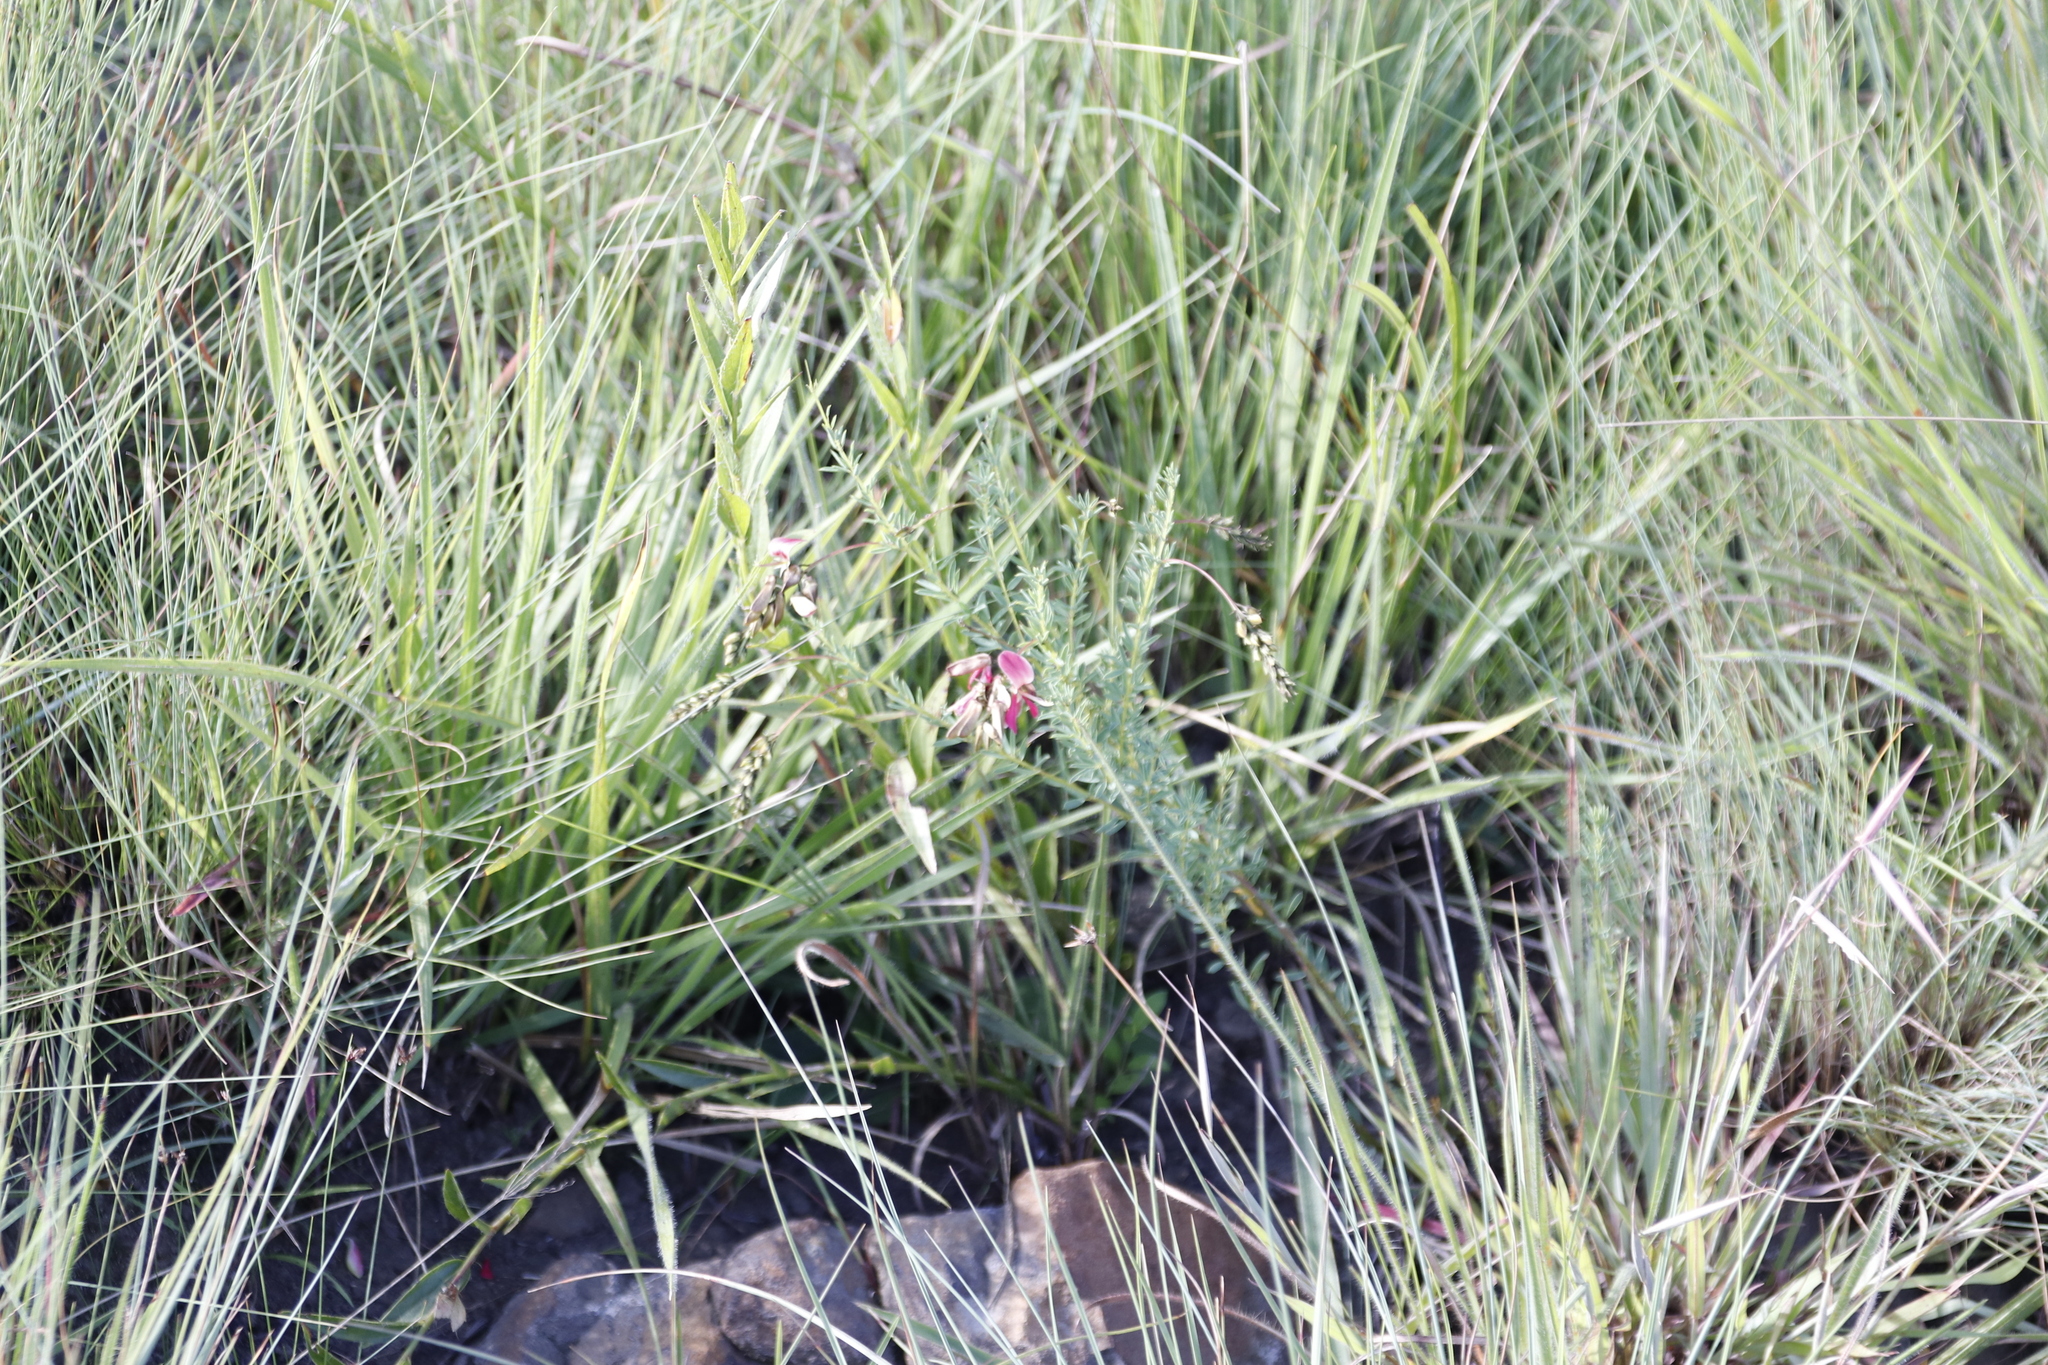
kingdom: Plantae
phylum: Tracheophyta
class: Magnoliopsida
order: Fabales
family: Fabaceae
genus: Indigofera
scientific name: Indigofera rostrata
